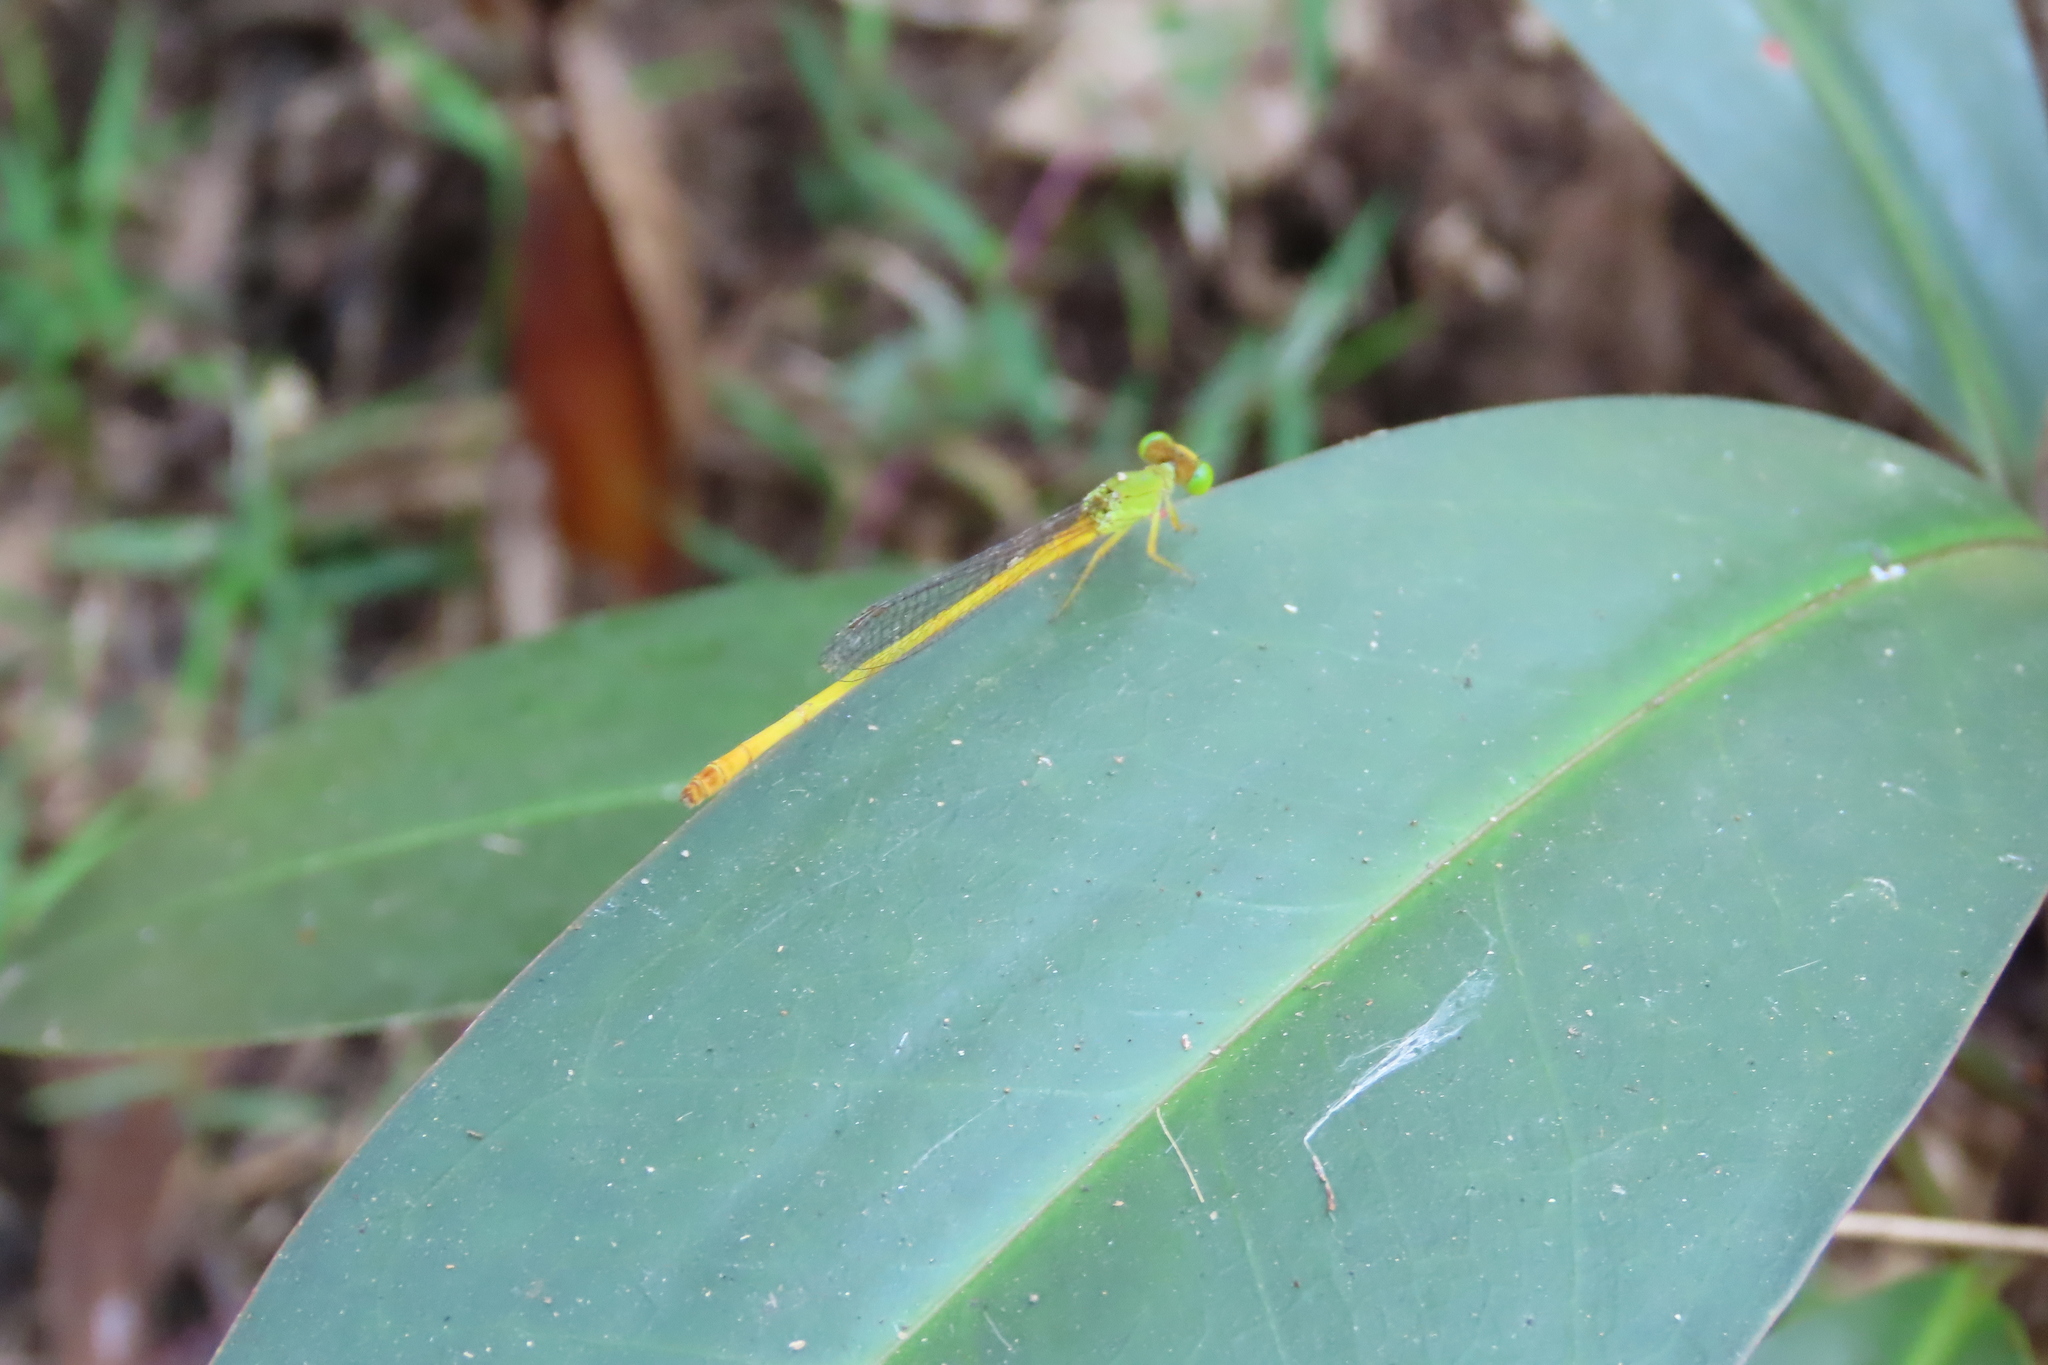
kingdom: Animalia
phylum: Arthropoda
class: Insecta
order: Odonata
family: Coenagrionidae
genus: Ceriagrion
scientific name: Ceriagrion coromandelianum
